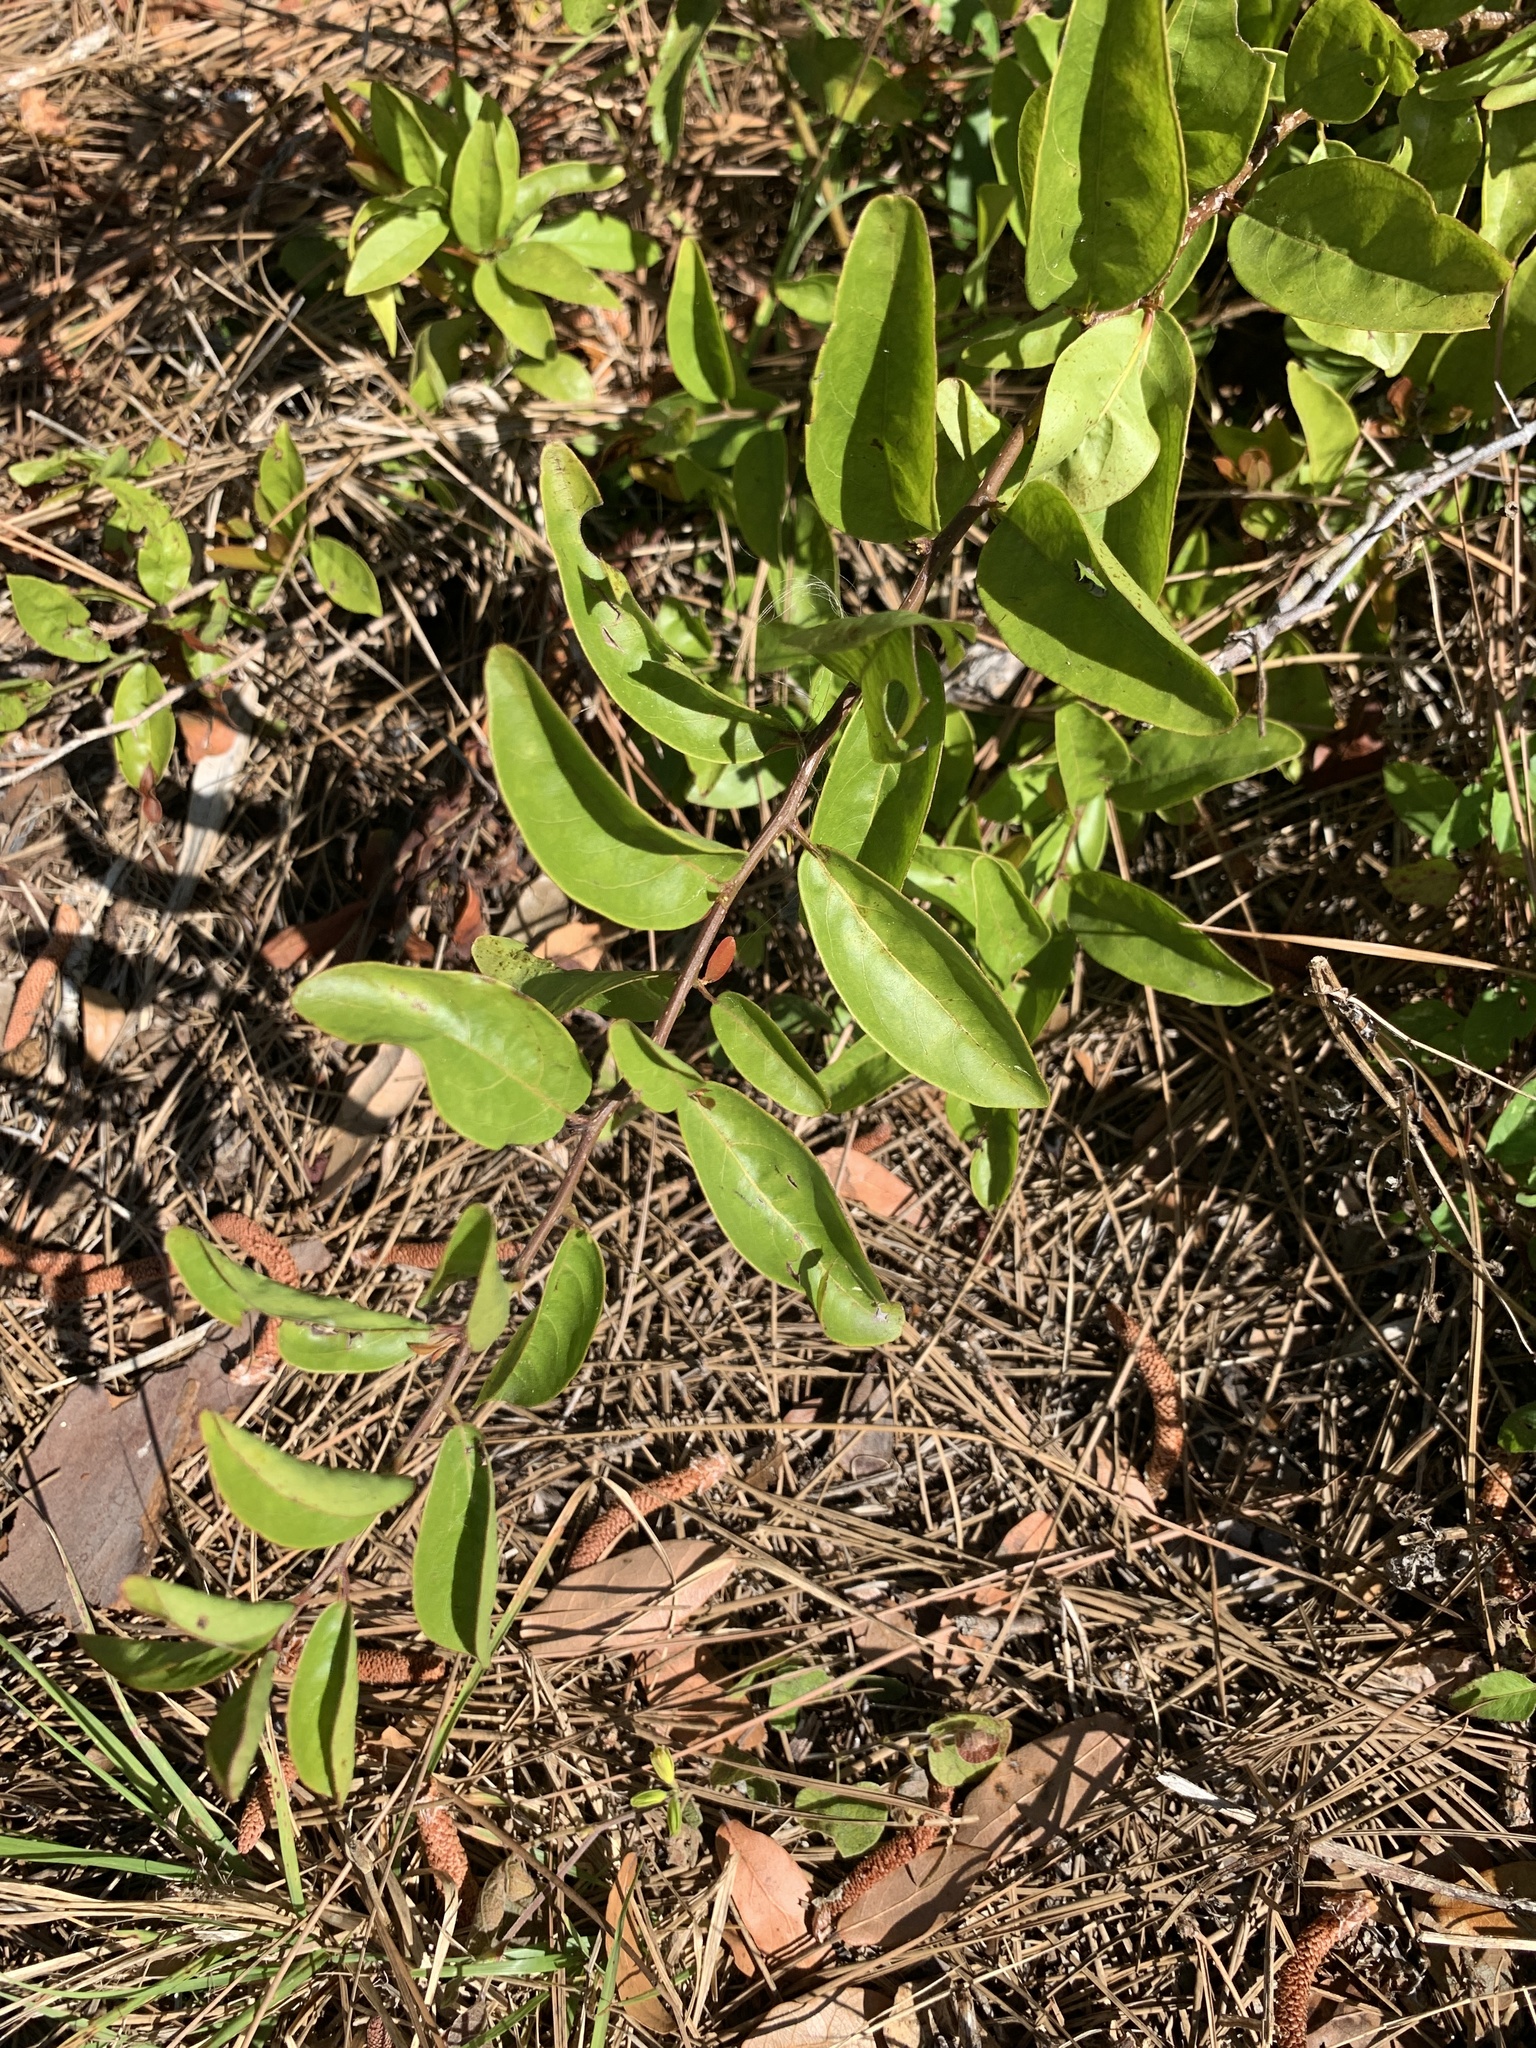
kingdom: Plantae
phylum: Tracheophyta
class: Magnoliopsida
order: Santalales
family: Ximeniaceae
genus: Ximenia
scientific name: Ximenia americana
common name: Tallowwood
